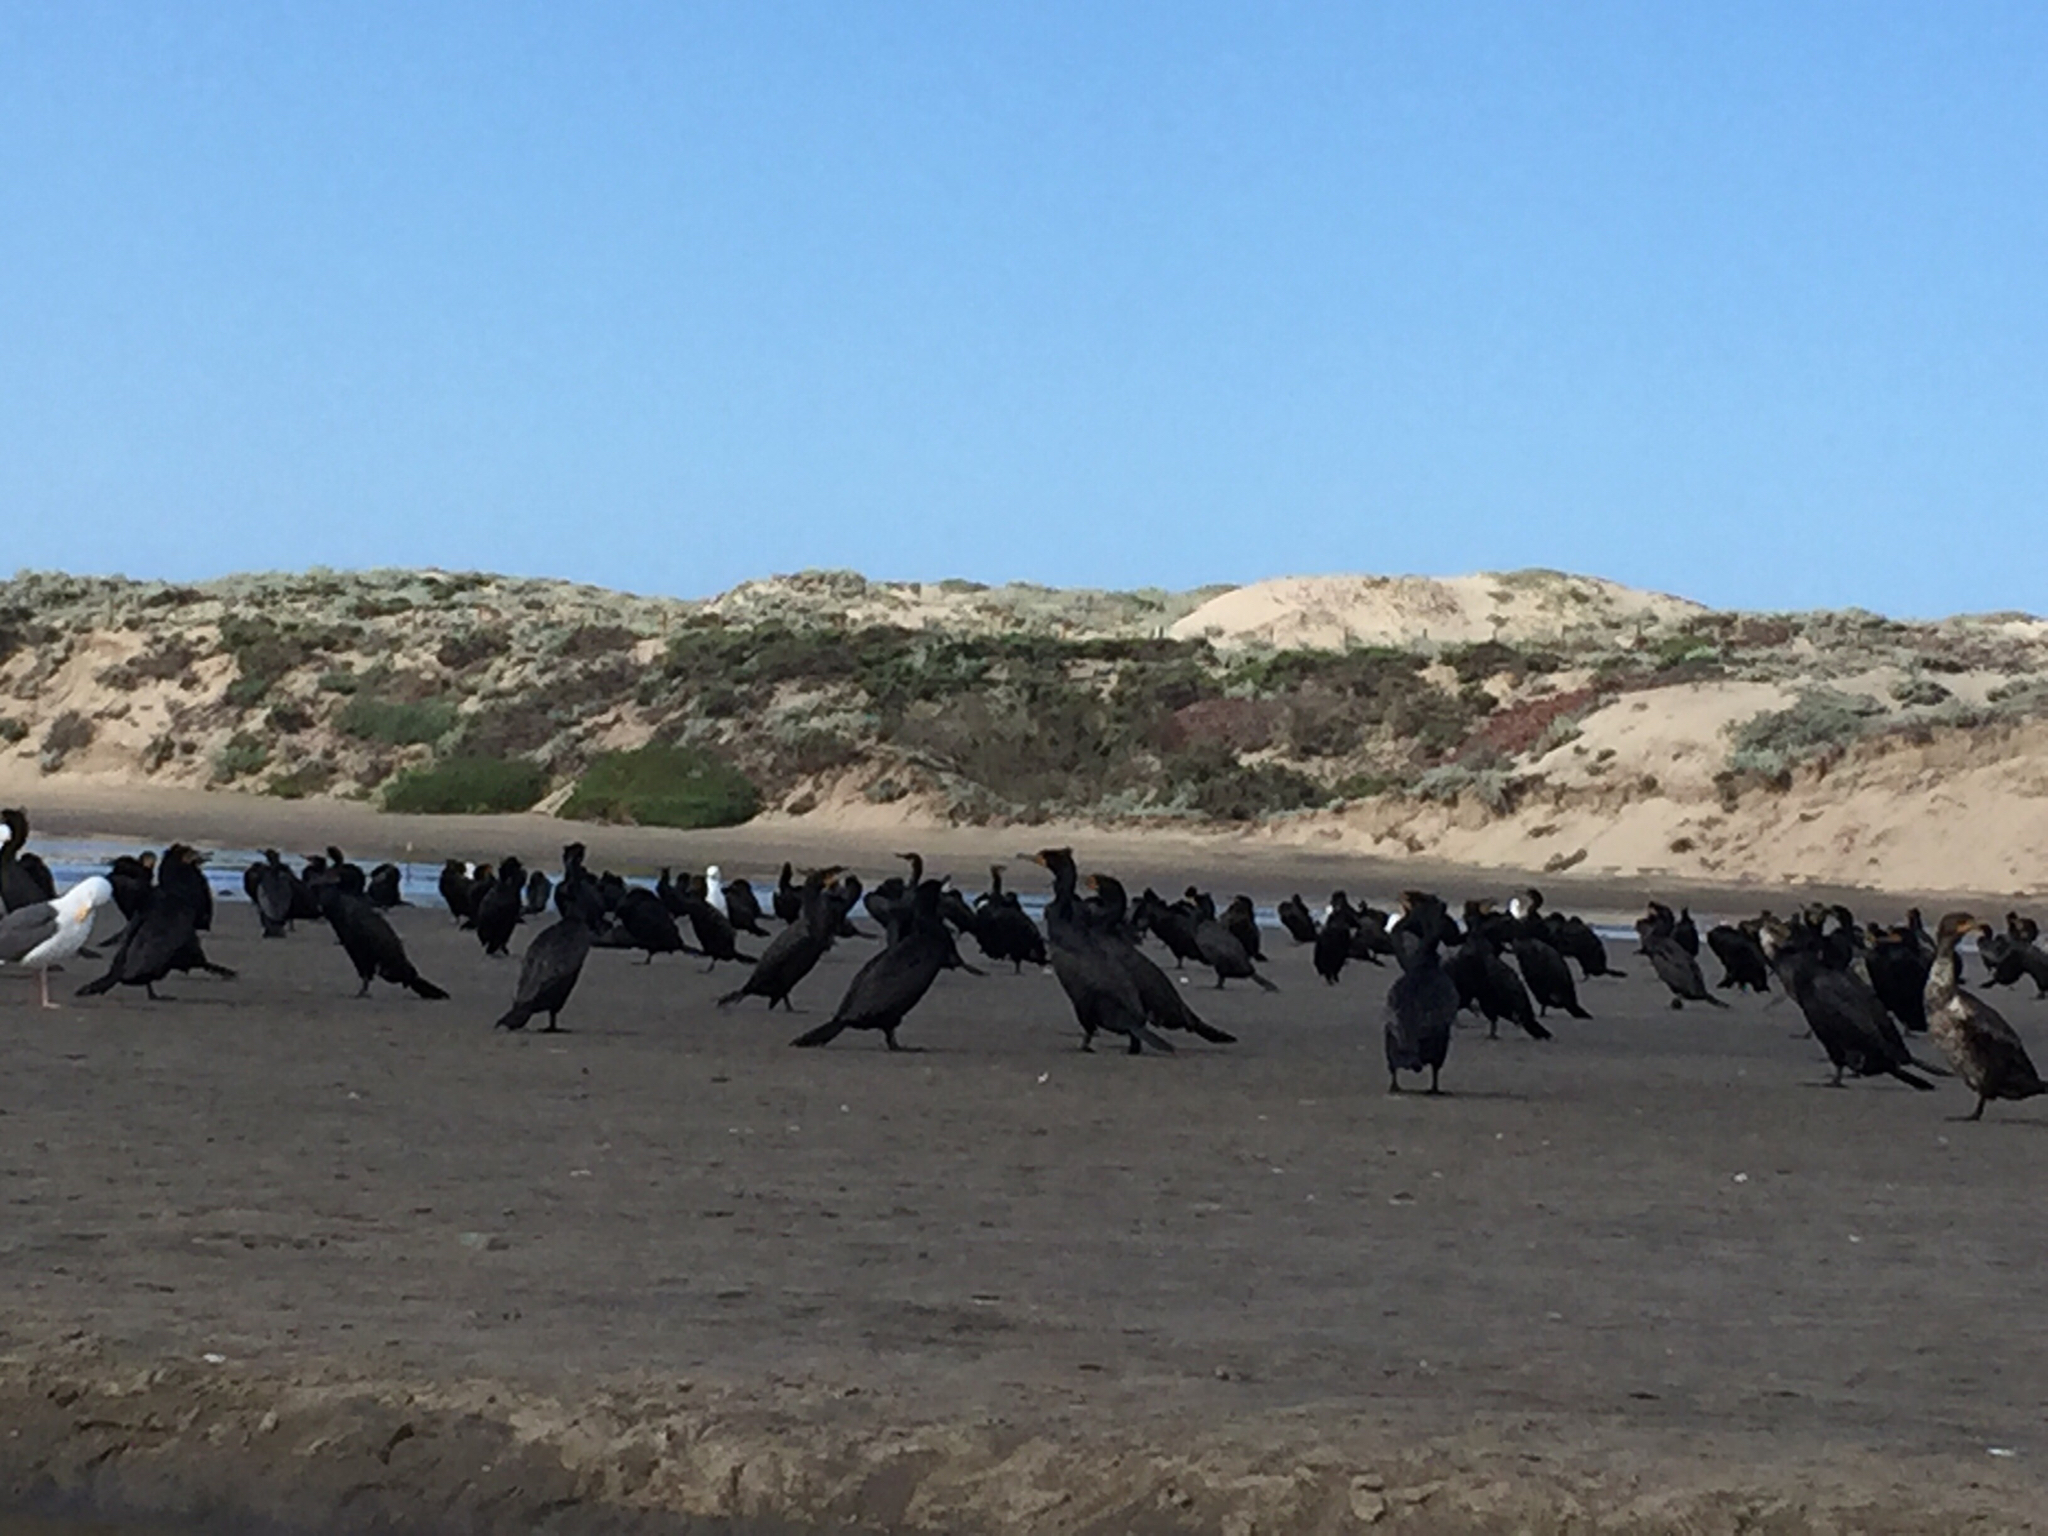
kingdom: Animalia
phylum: Chordata
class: Aves
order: Suliformes
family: Phalacrocoracidae
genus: Phalacrocorax
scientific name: Phalacrocorax auritus
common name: Double-crested cormorant
